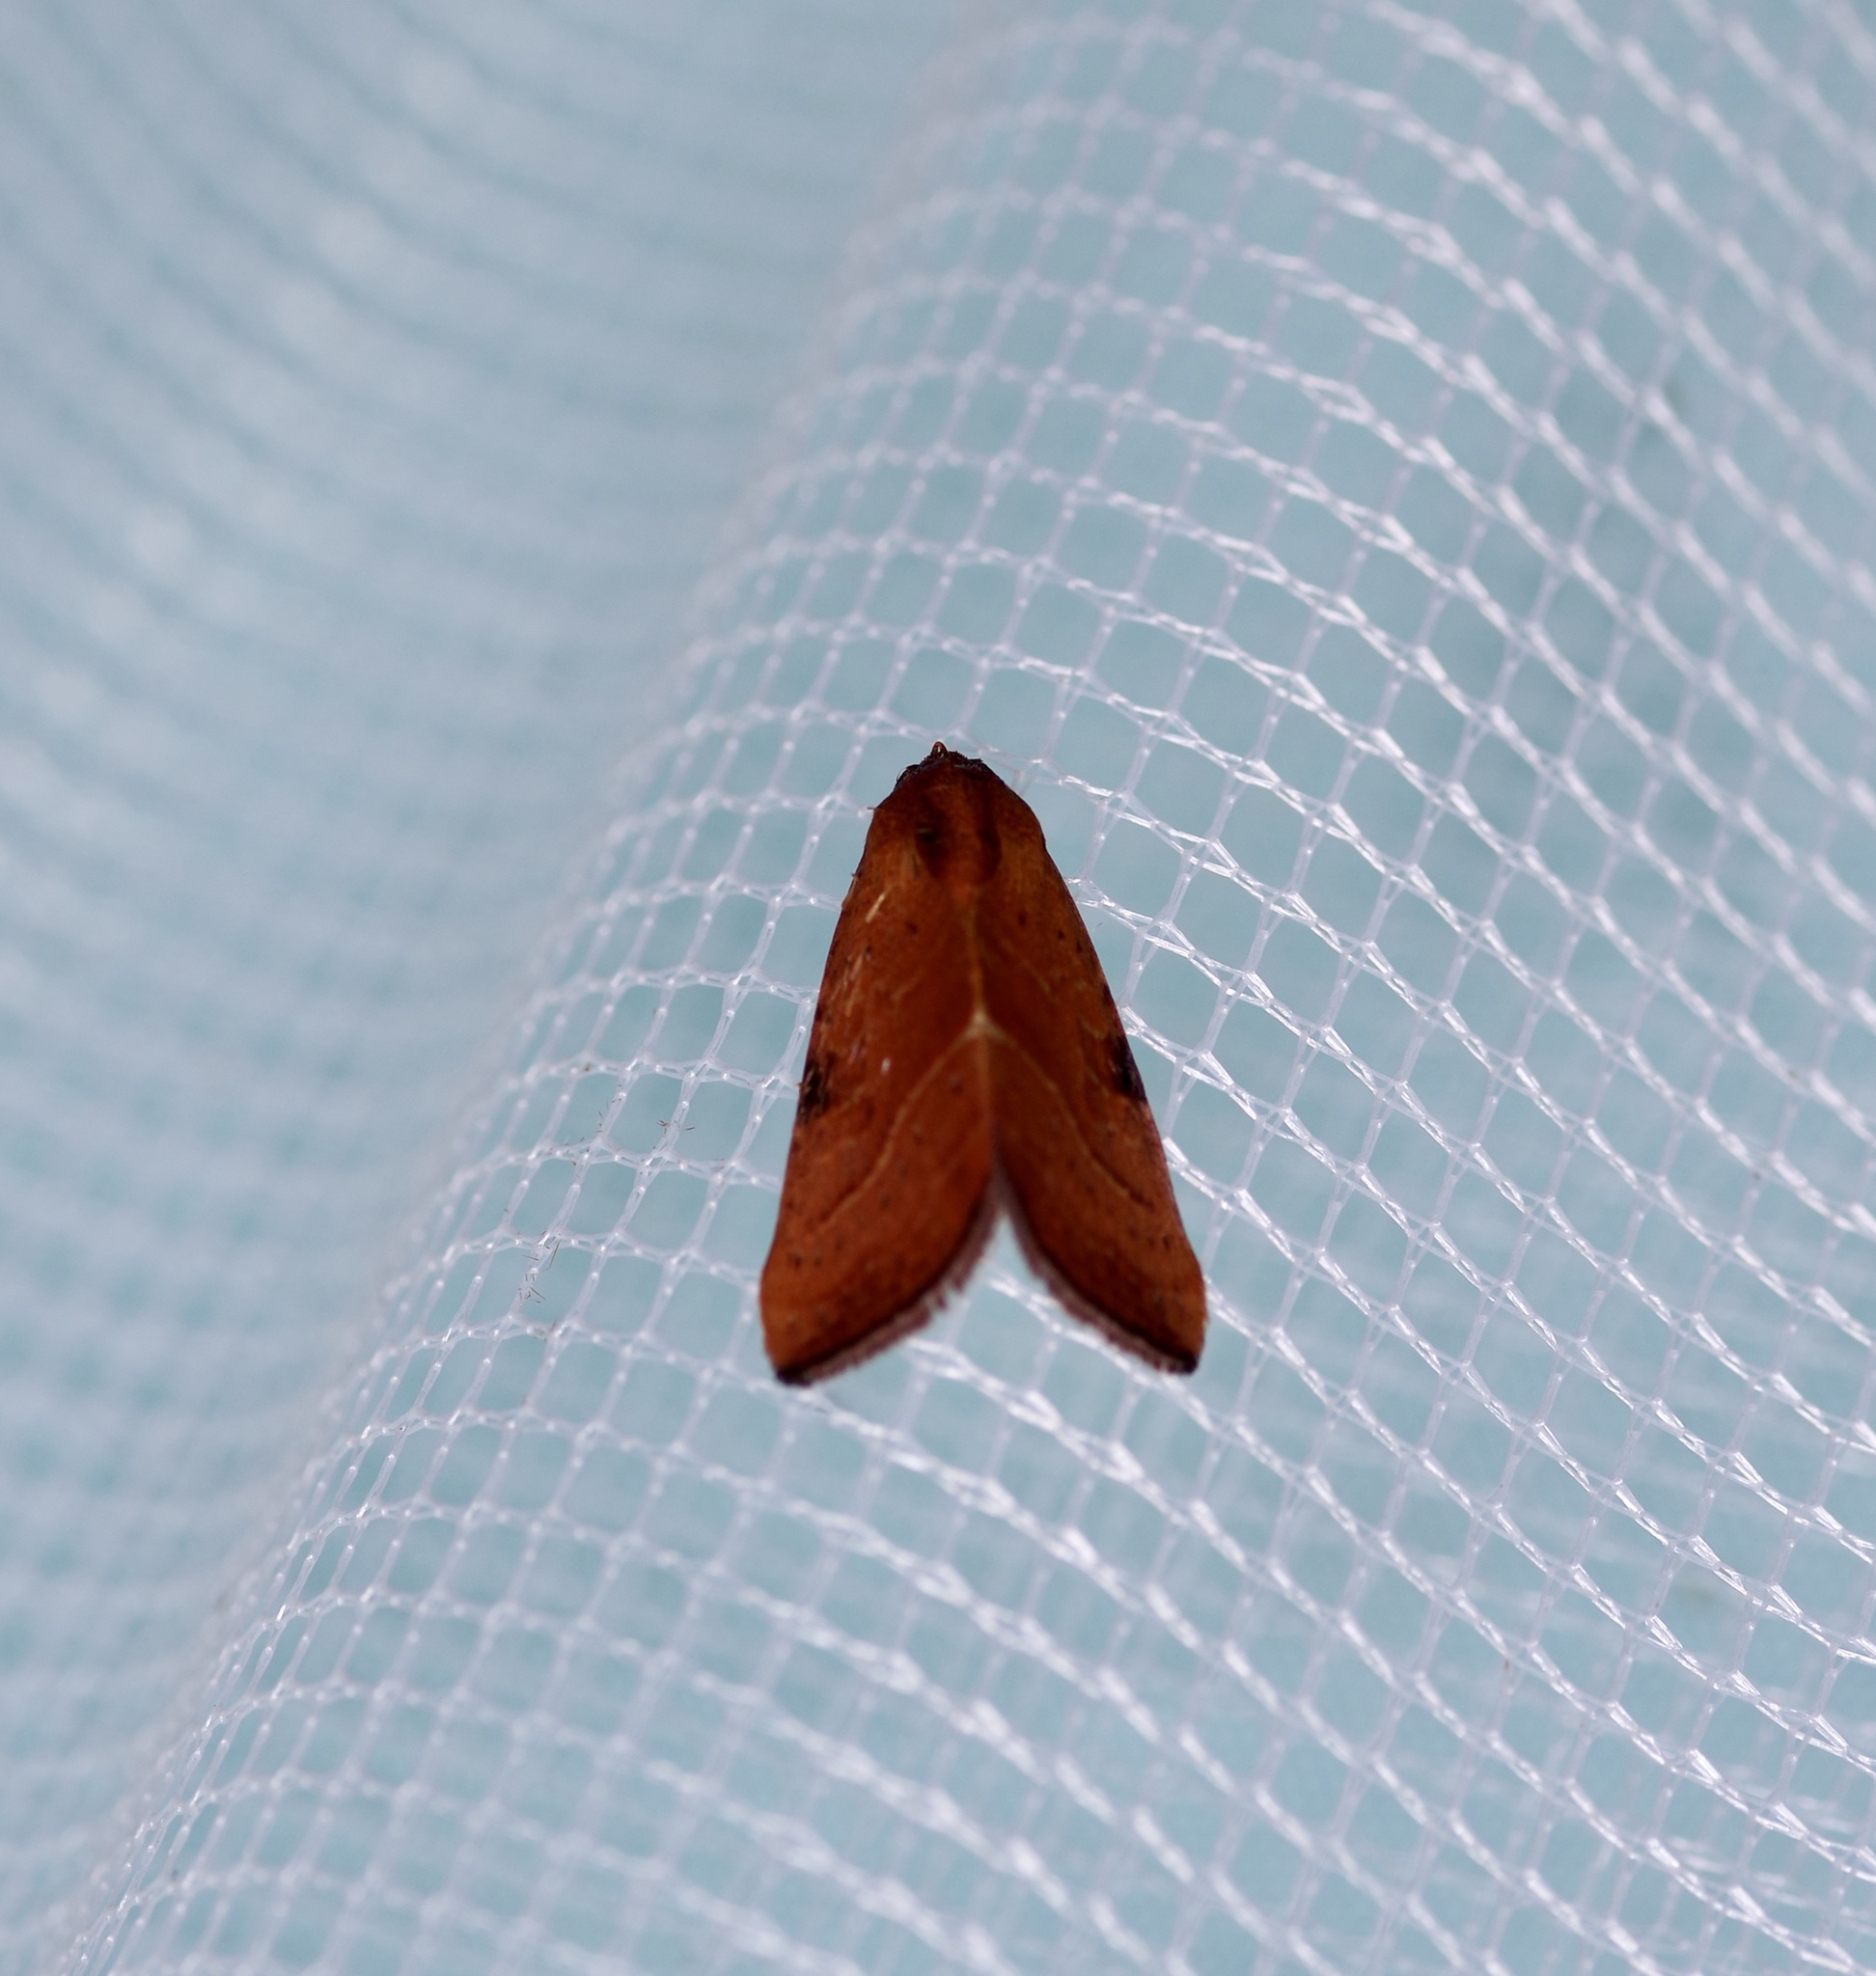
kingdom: Animalia
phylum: Arthropoda
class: Insecta
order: Lepidoptera
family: Noctuidae
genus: Galgula
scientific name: Galgula partita
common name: Wedgeling
